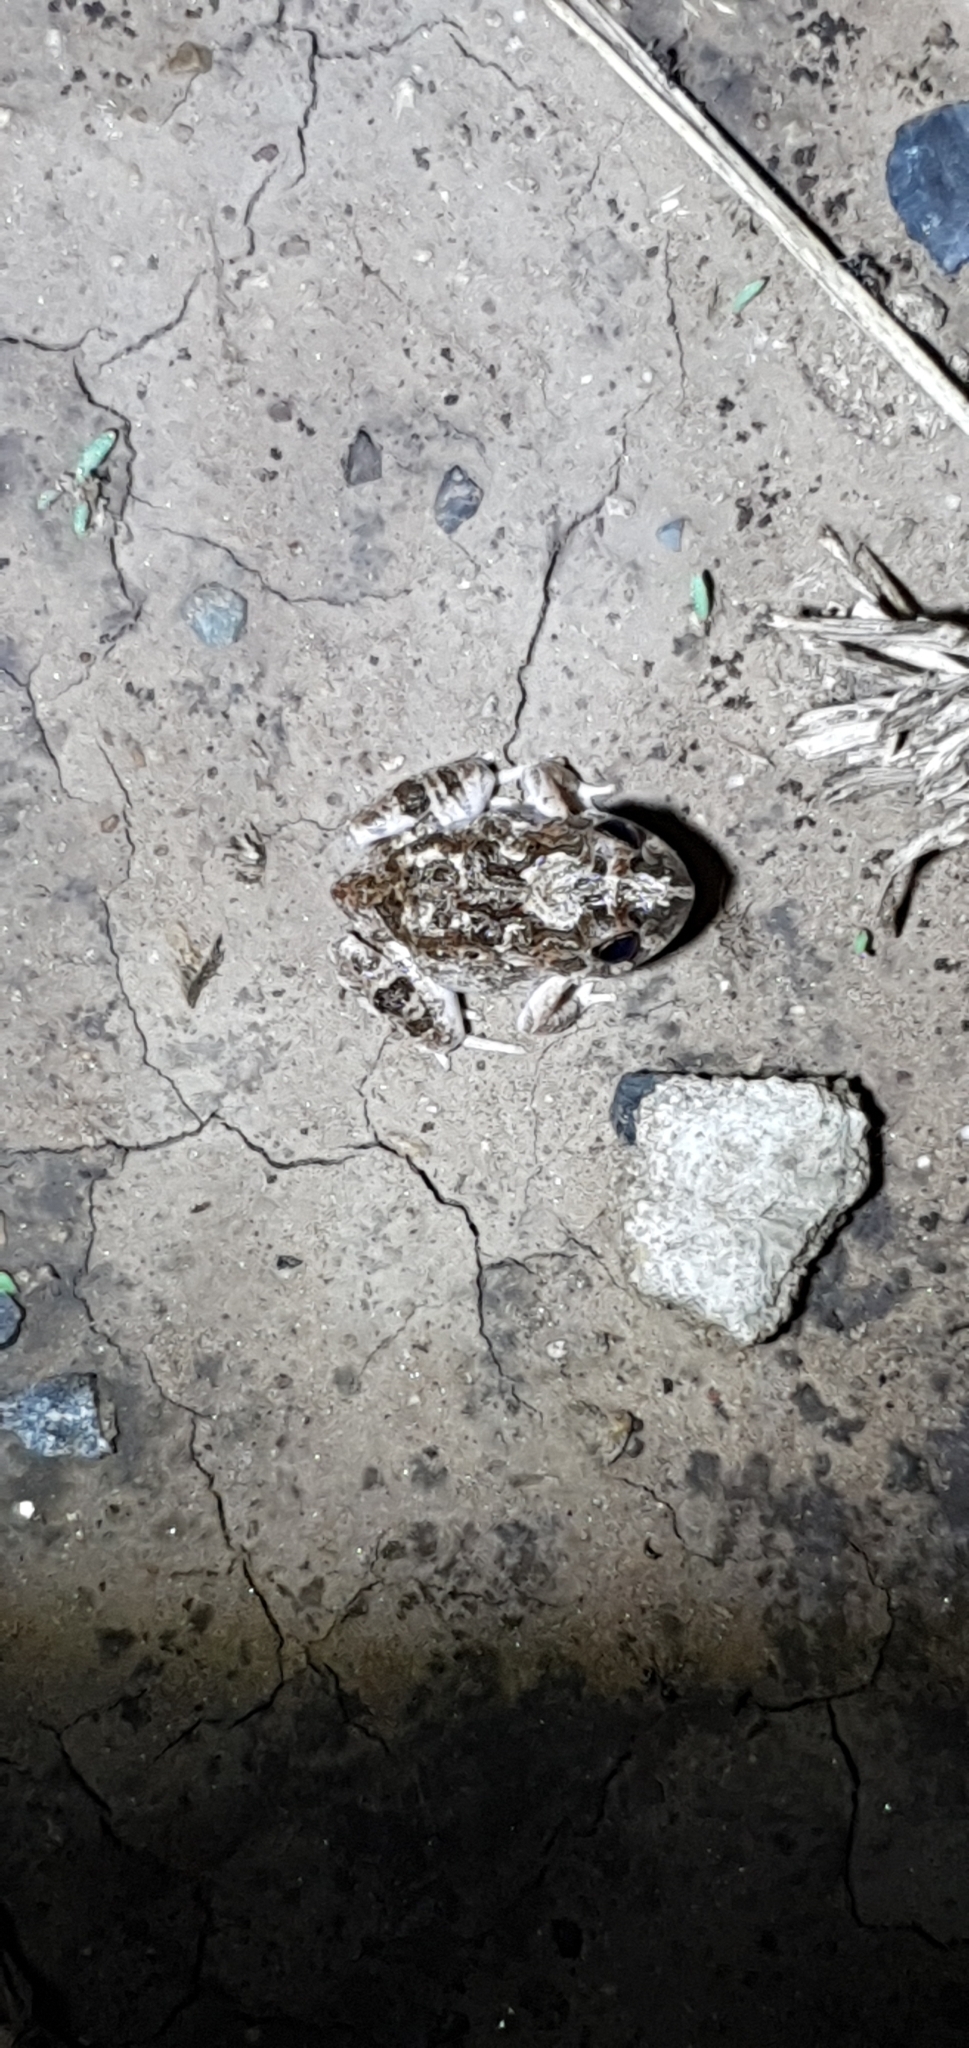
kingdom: Animalia
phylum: Chordata
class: Amphibia
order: Anura
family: Limnodynastidae
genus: Platyplectrum
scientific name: Platyplectrum ornatum
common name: Ornate burrowing frog
